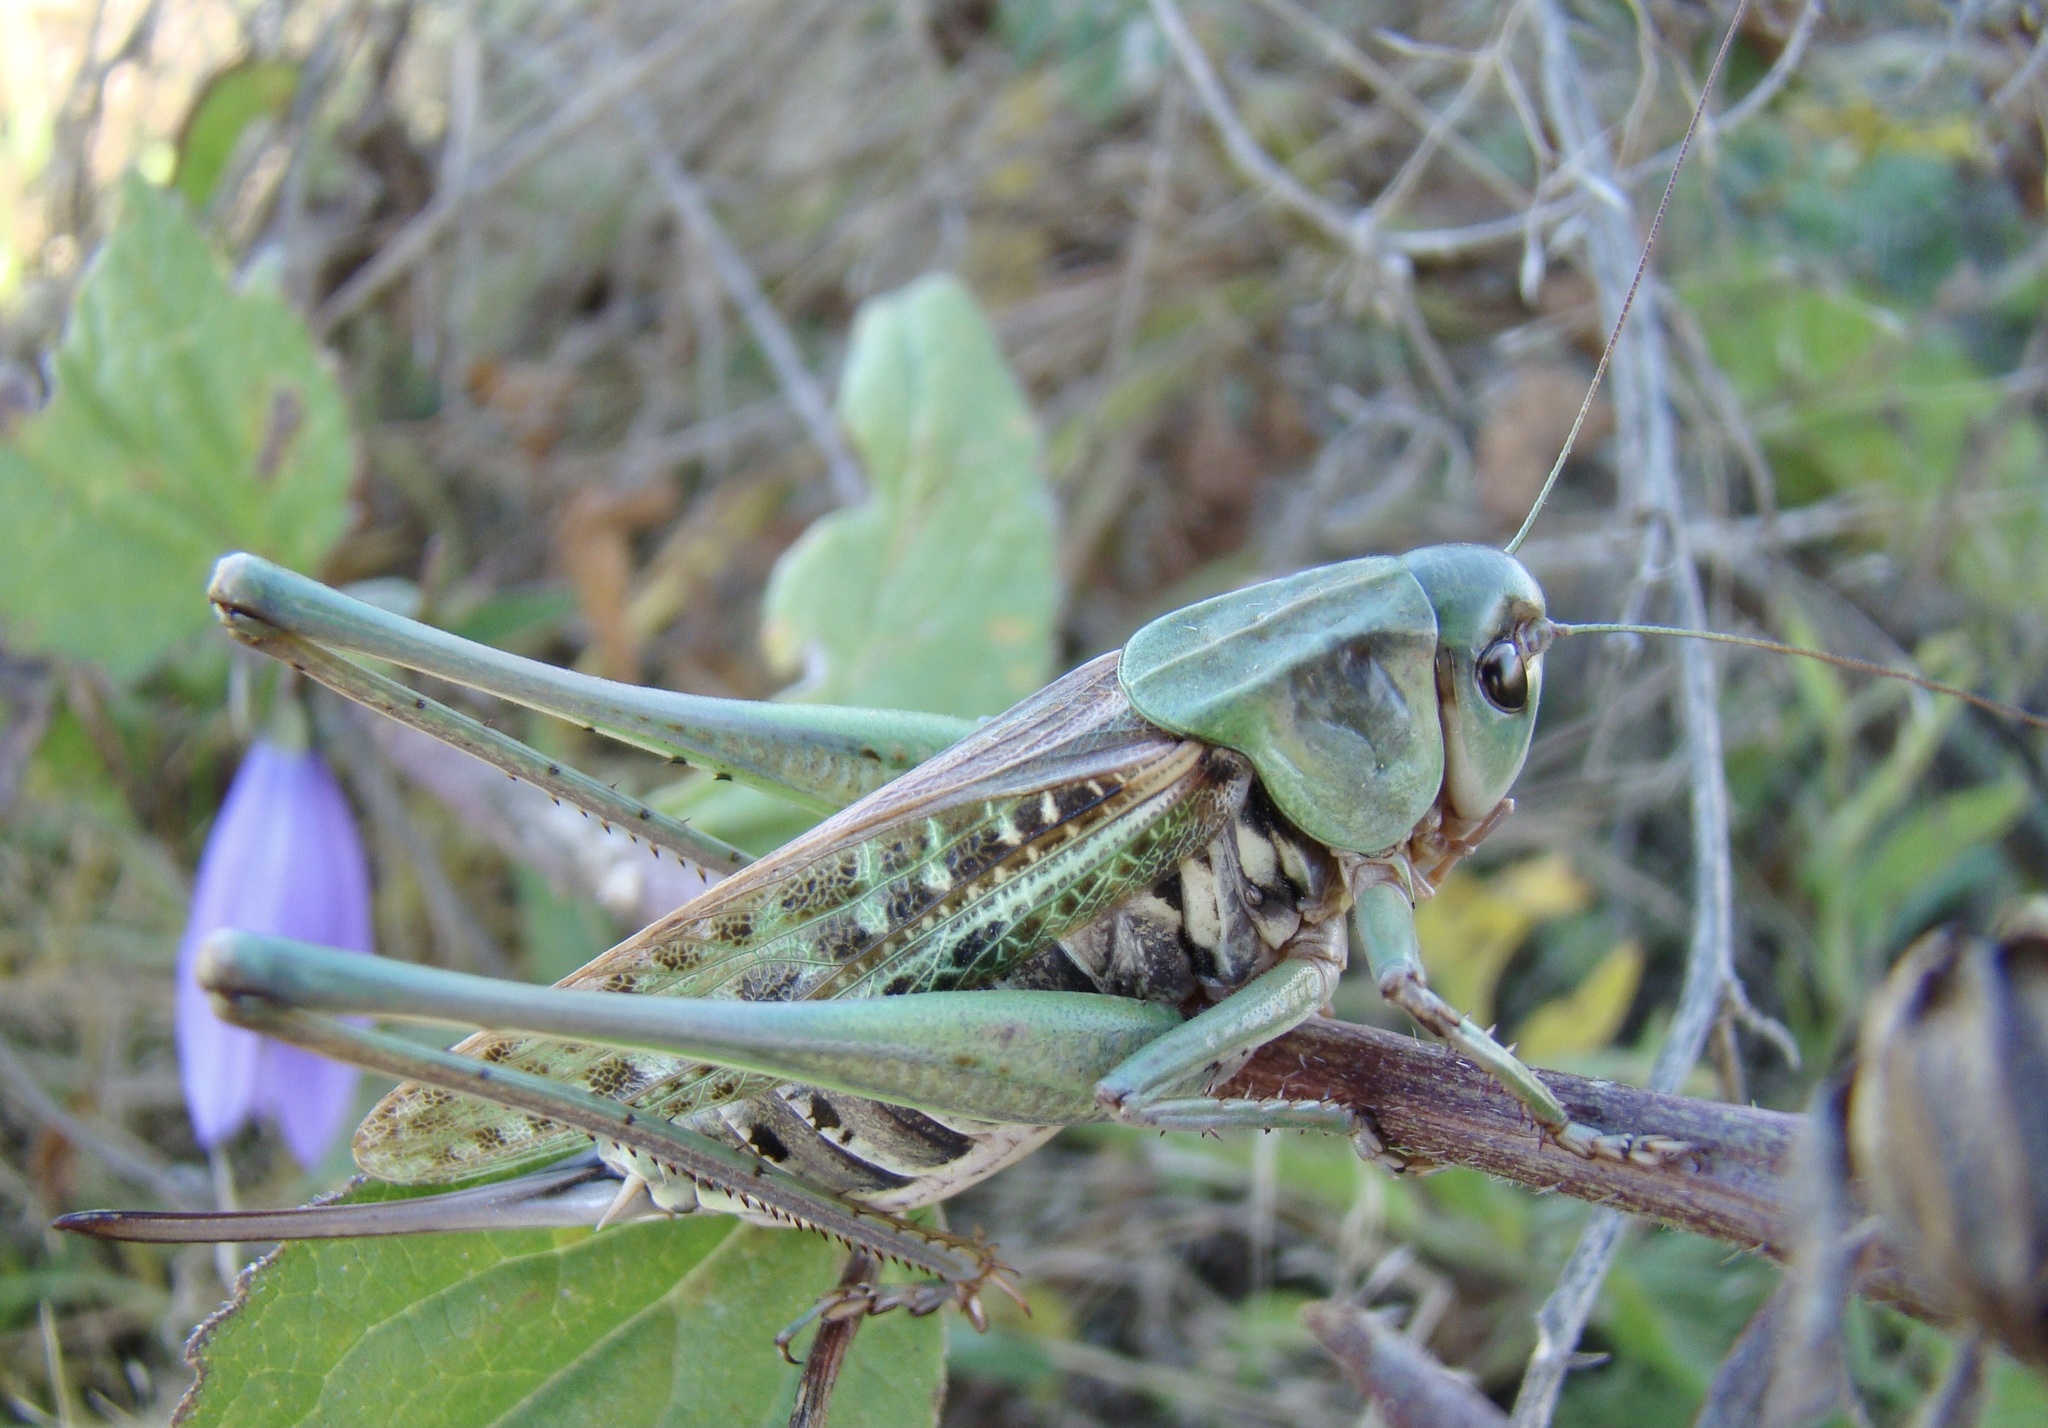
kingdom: Animalia
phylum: Arthropoda
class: Insecta
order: Orthoptera
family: Tettigoniidae
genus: Decticus
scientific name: Decticus verrucivorus
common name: Wart-biter
